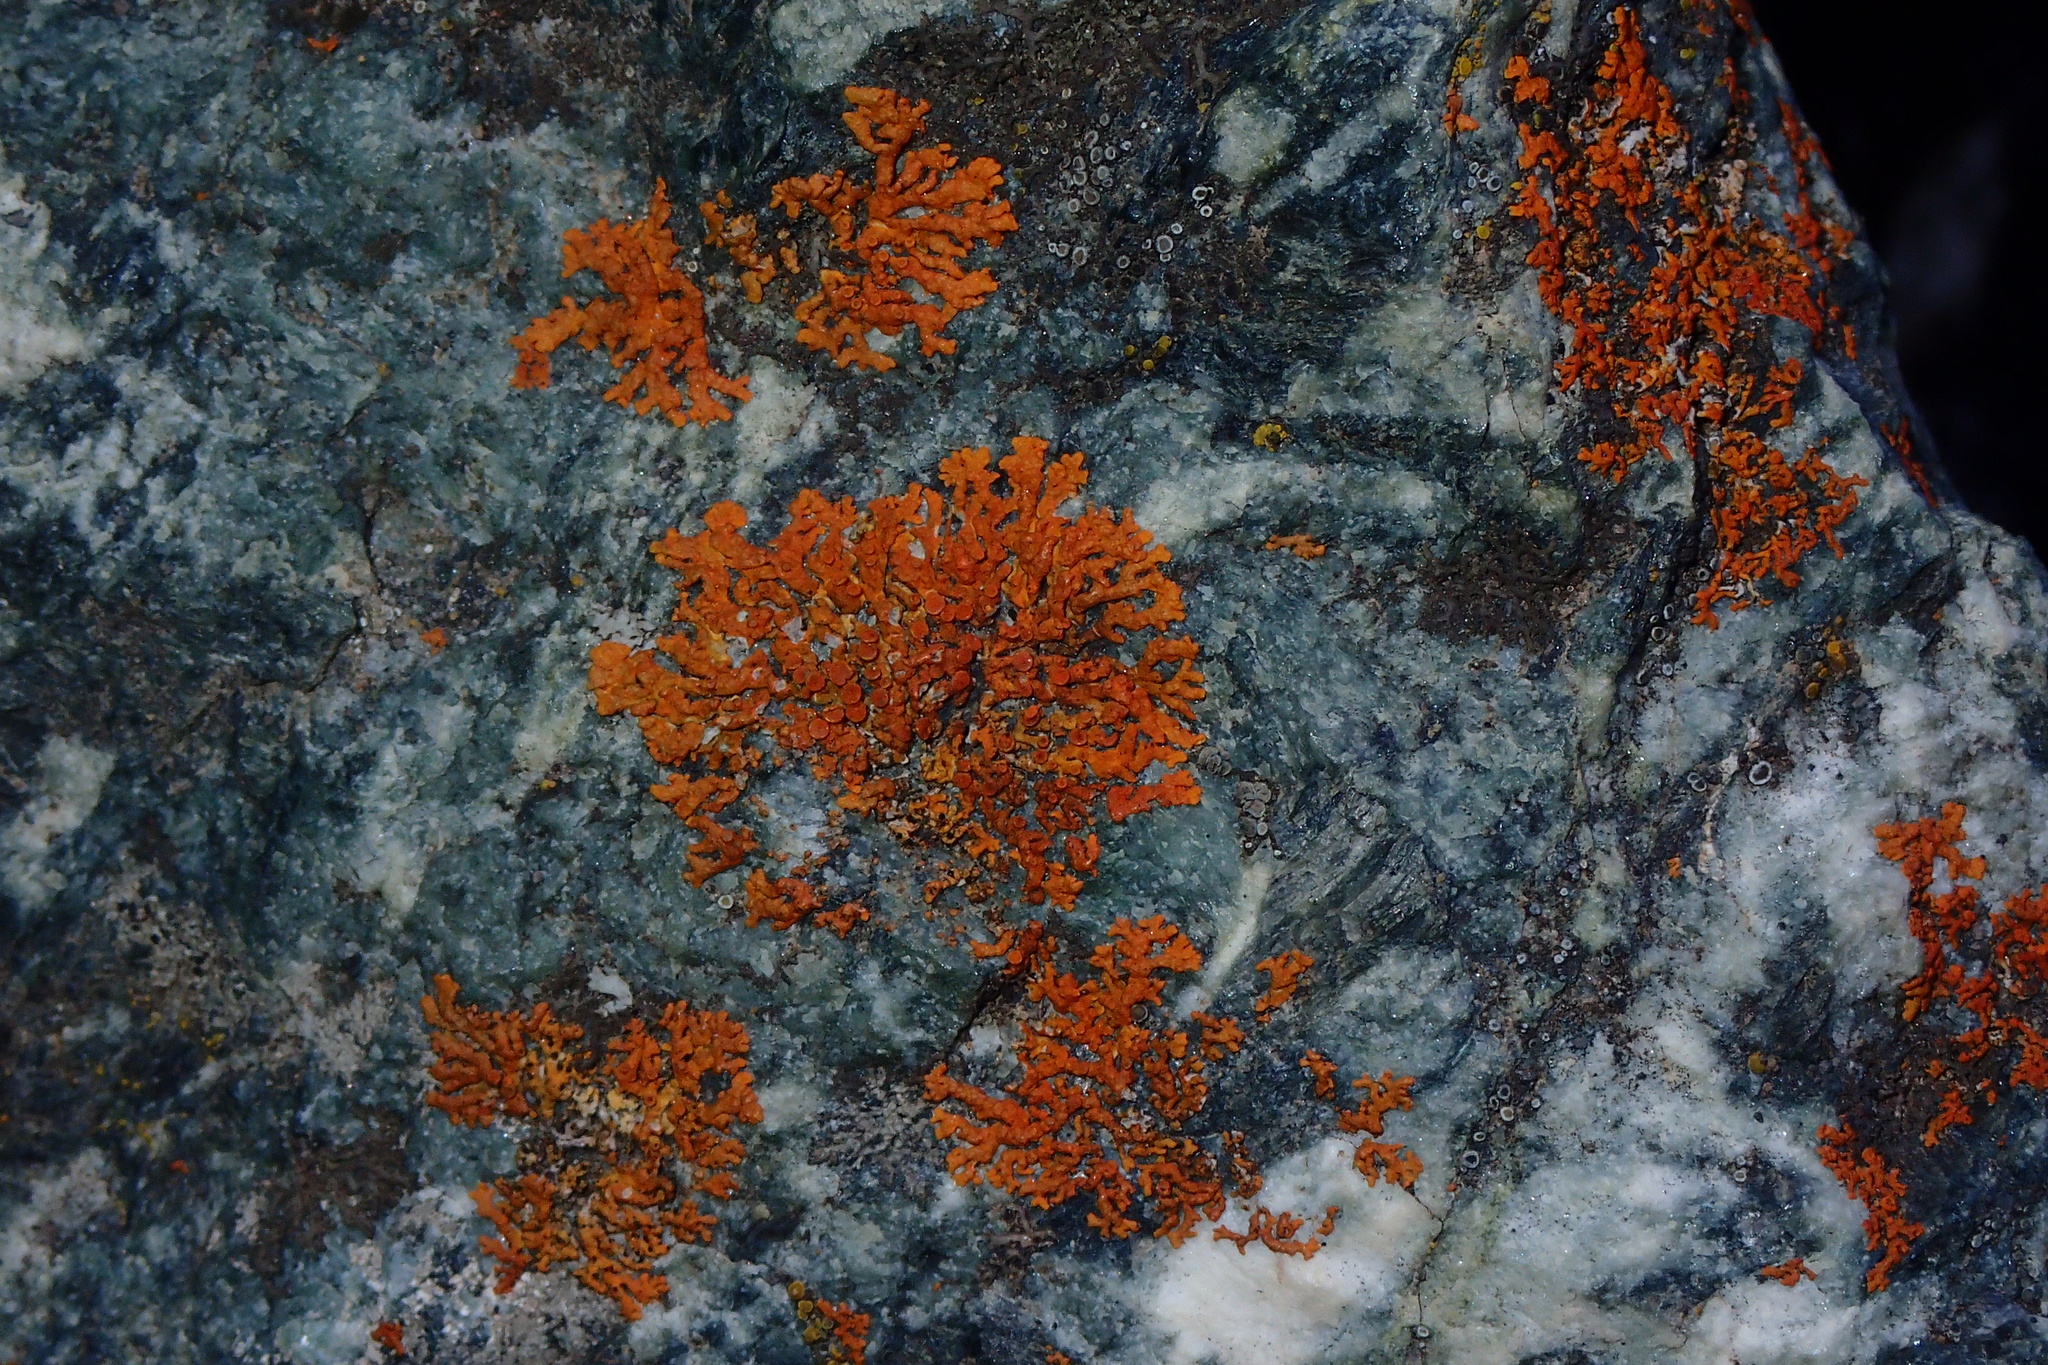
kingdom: Fungi
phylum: Ascomycota
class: Lecanoromycetes
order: Teloschistales
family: Teloschistaceae
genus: Xanthoria
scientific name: Xanthoria elegans
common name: Elegant sunburst lichen
